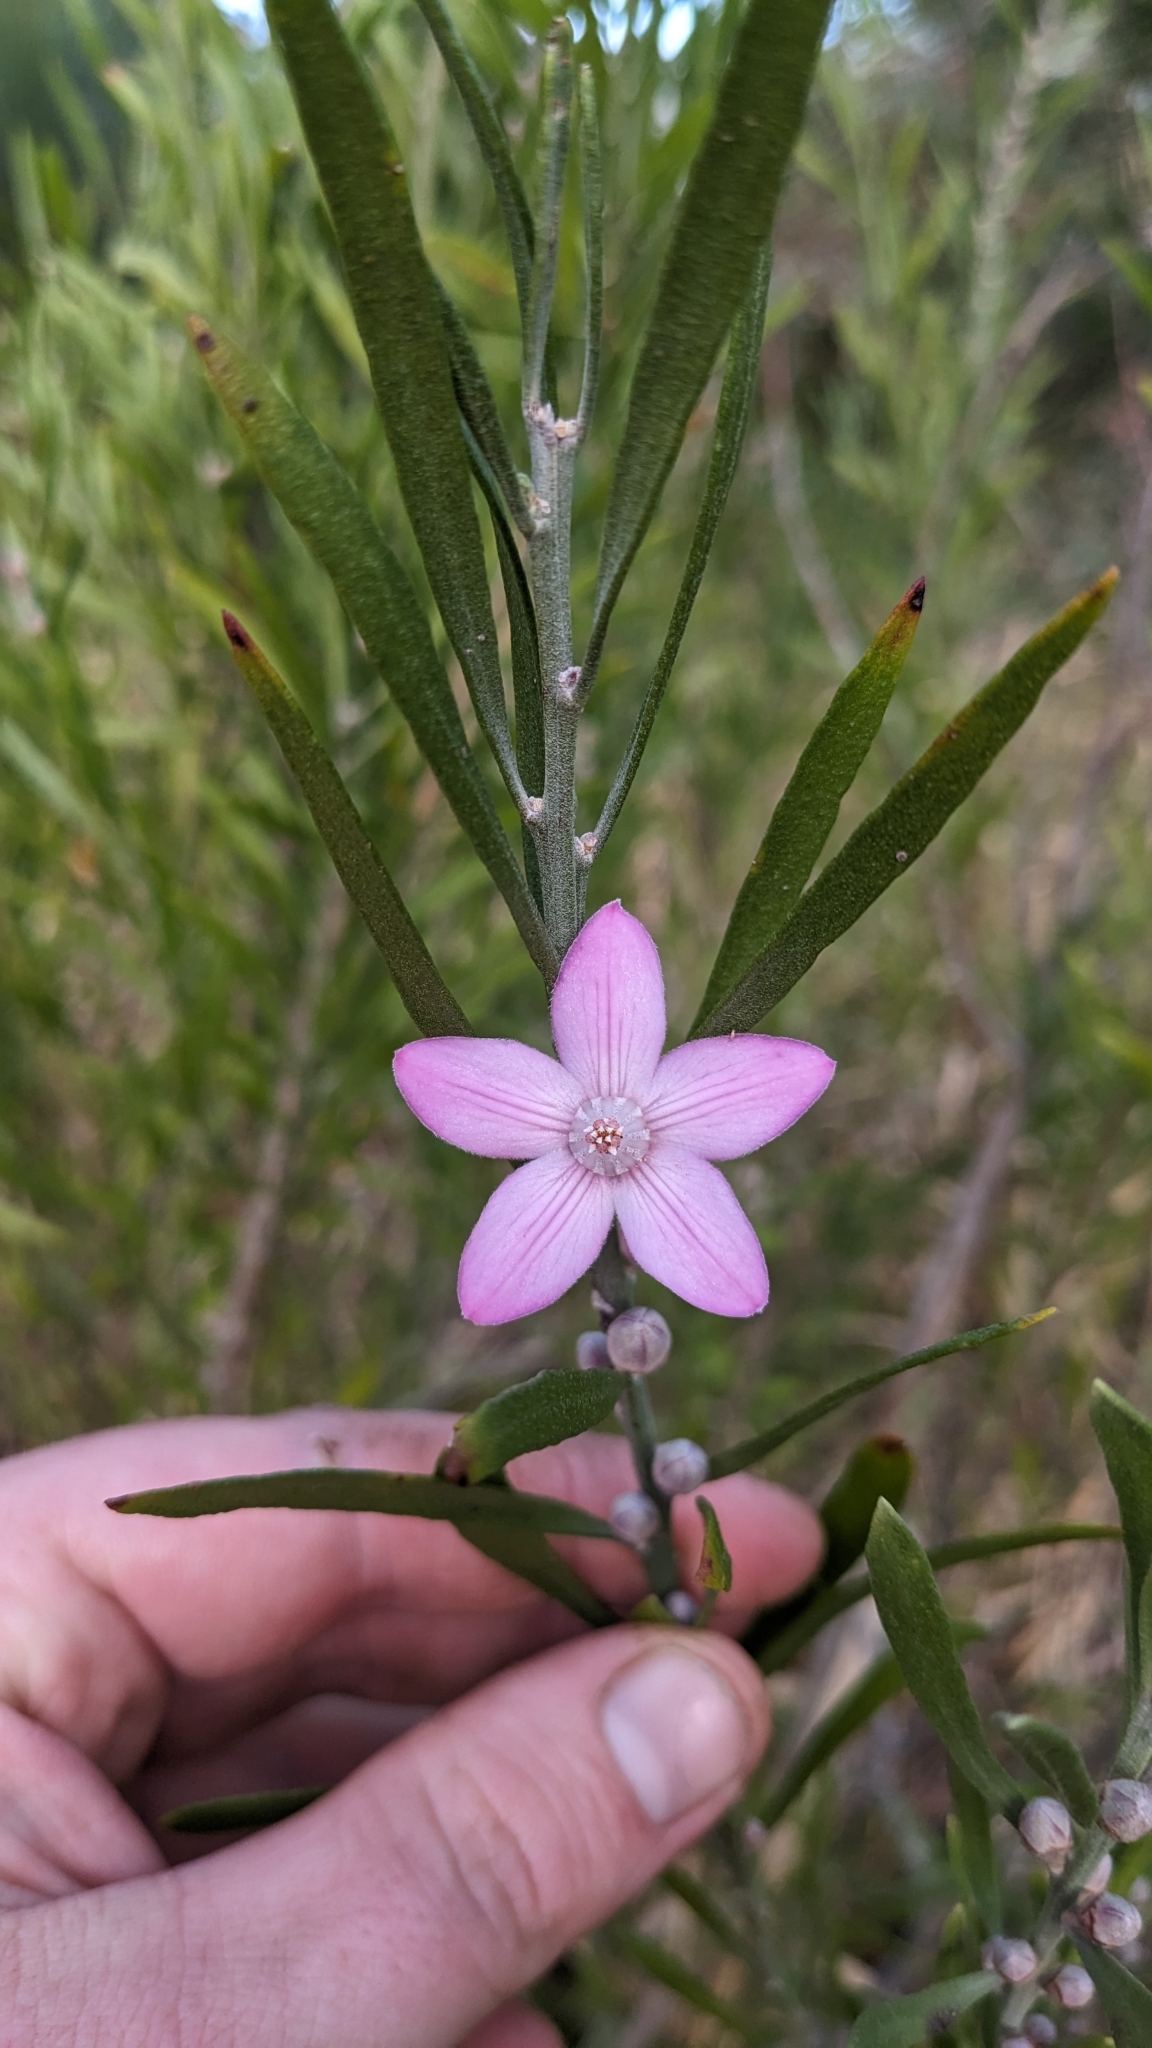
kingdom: Plantae
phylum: Tracheophyta
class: Magnoliopsida
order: Sapindales
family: Rutaceae
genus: Eriostemon
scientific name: Eriostemon australasius
